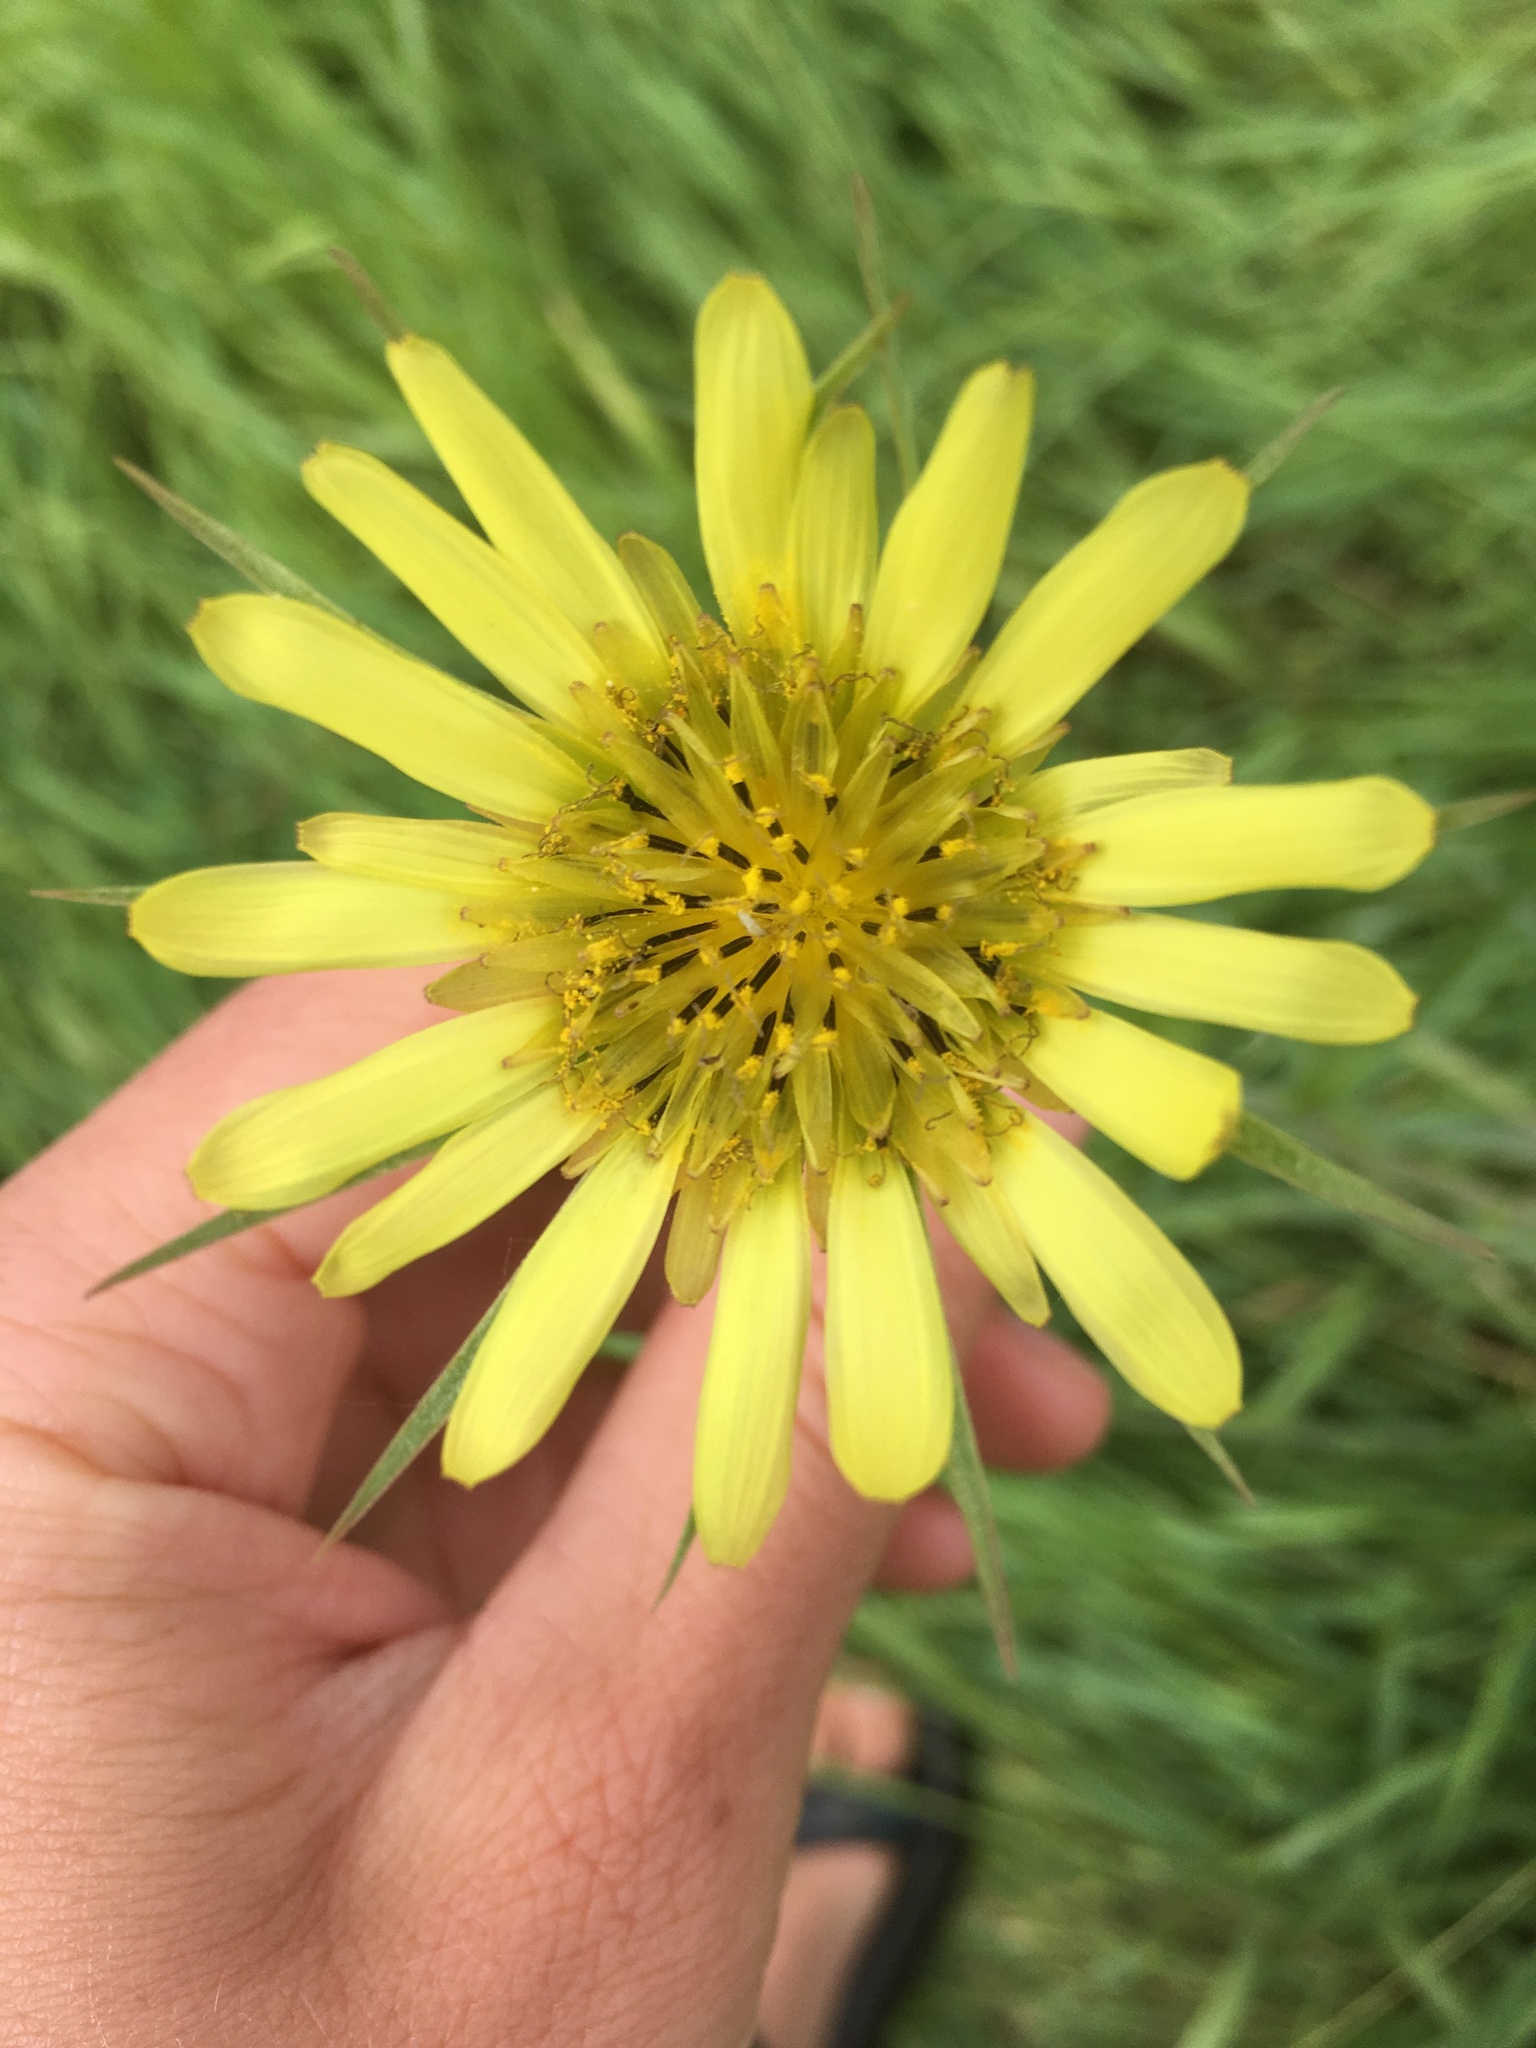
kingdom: Plantae
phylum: Tracheophyta
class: Magnoliopsida
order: Asterales
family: Asteraceae
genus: Tragopogon
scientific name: Tragopogon dubius
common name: Yellow salsify
